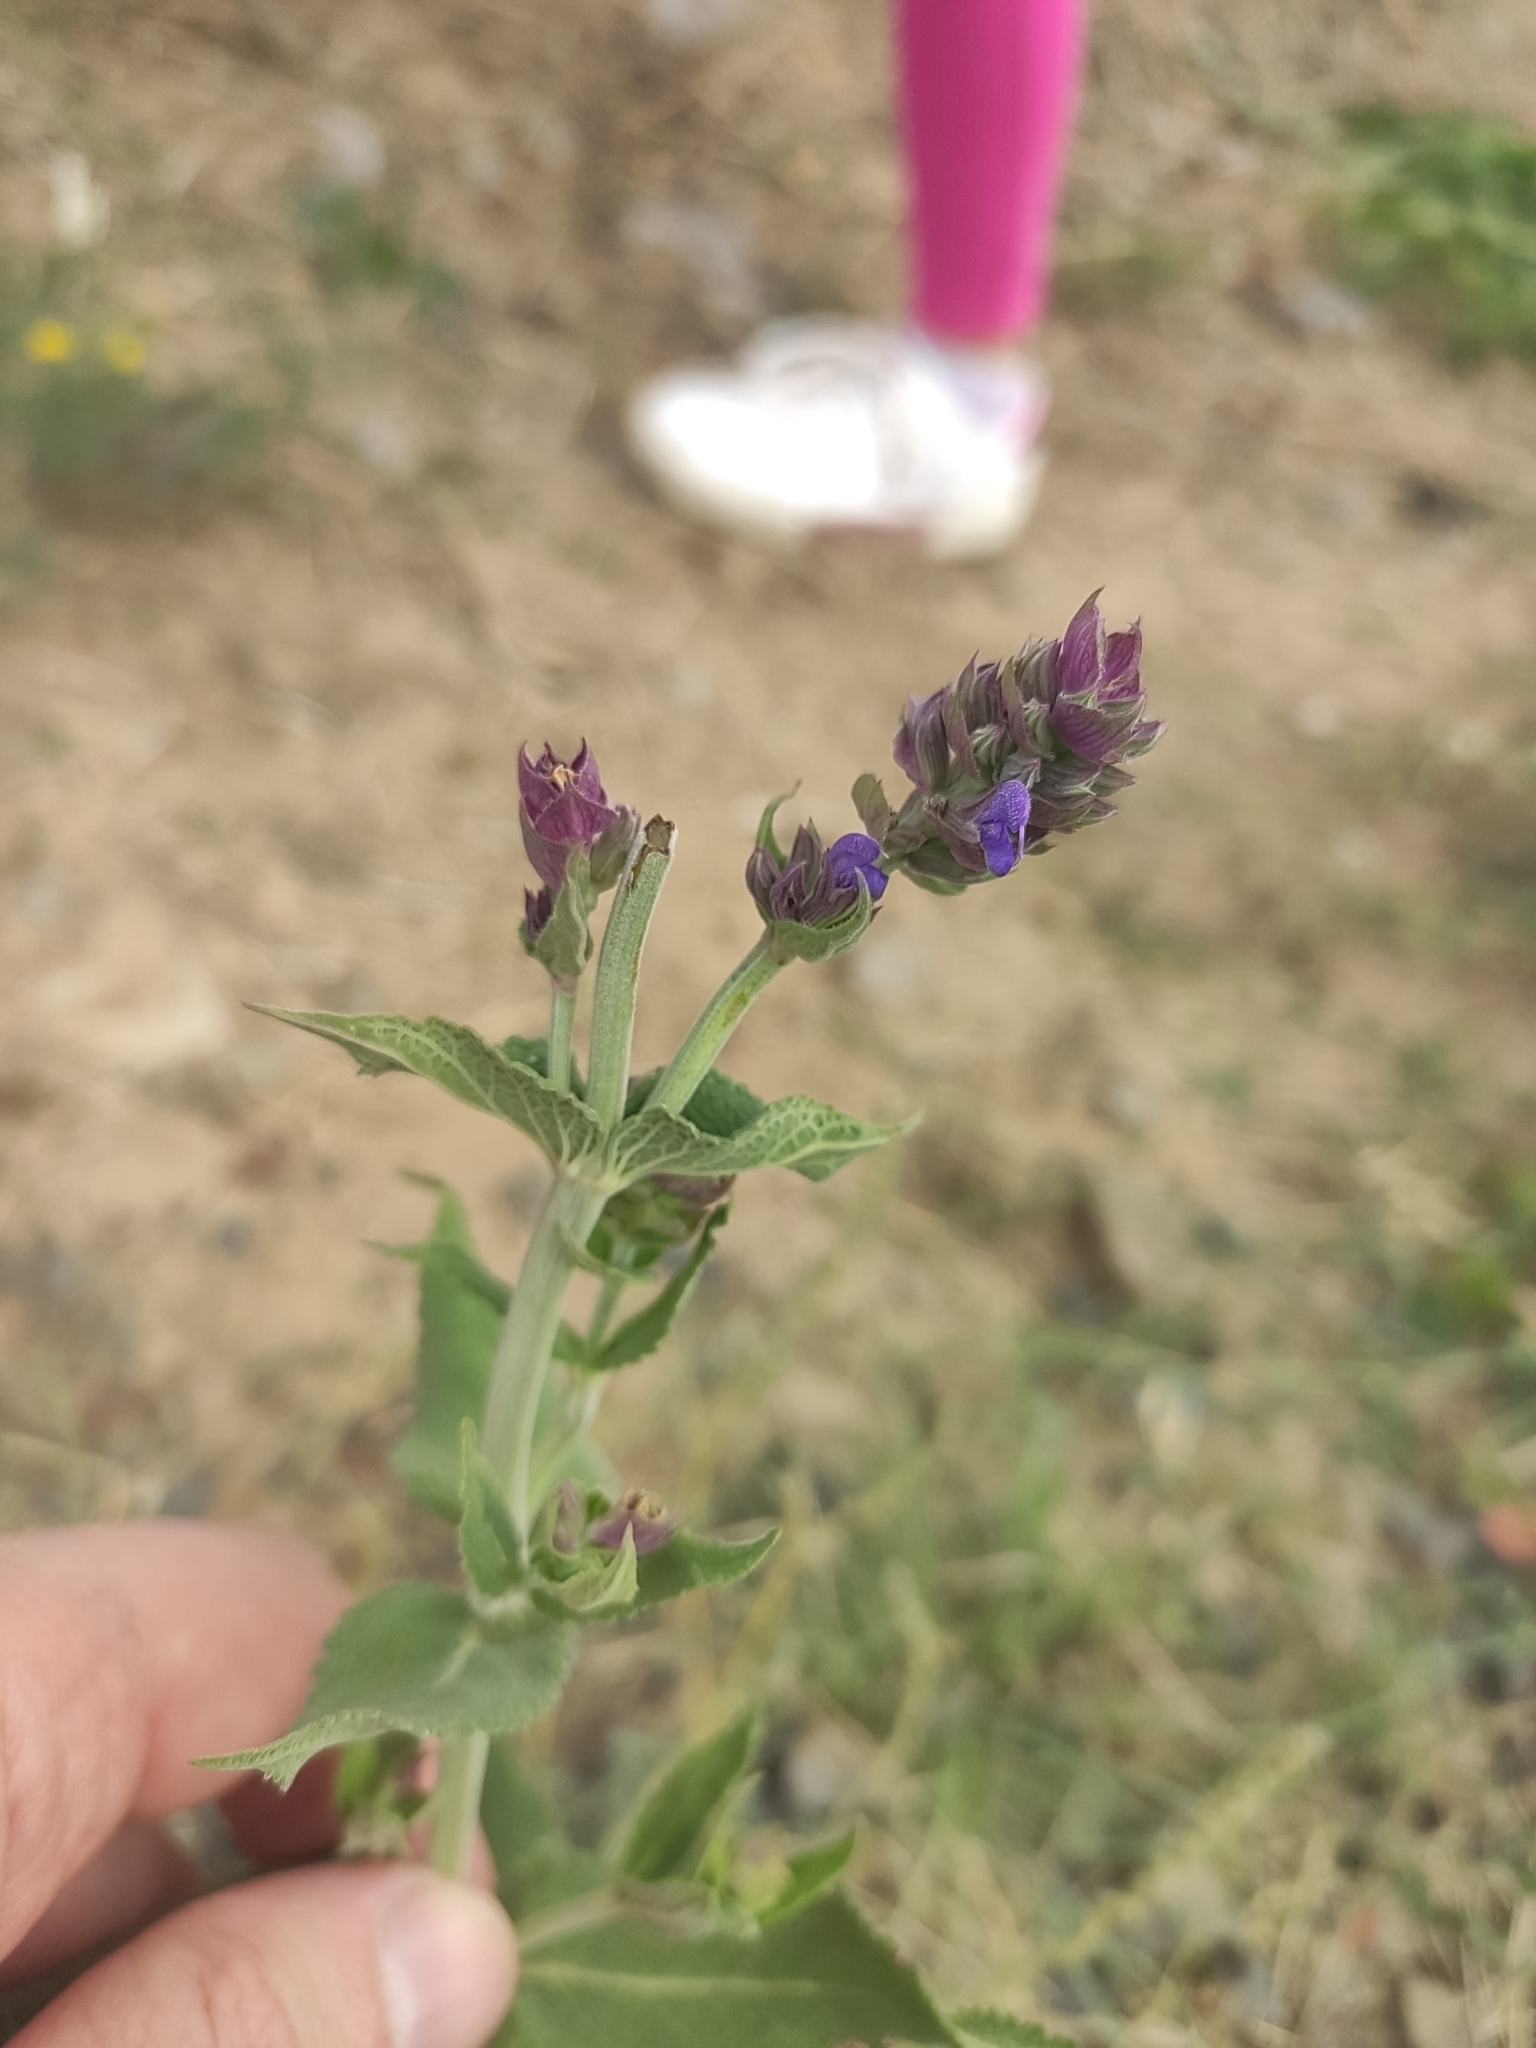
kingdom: Plantae
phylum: Tracheophyta
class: Magnoliopsida
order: Lamiales
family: Lamiaceae
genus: Salvia
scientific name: Salvia nemorosa
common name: Balkan clary
